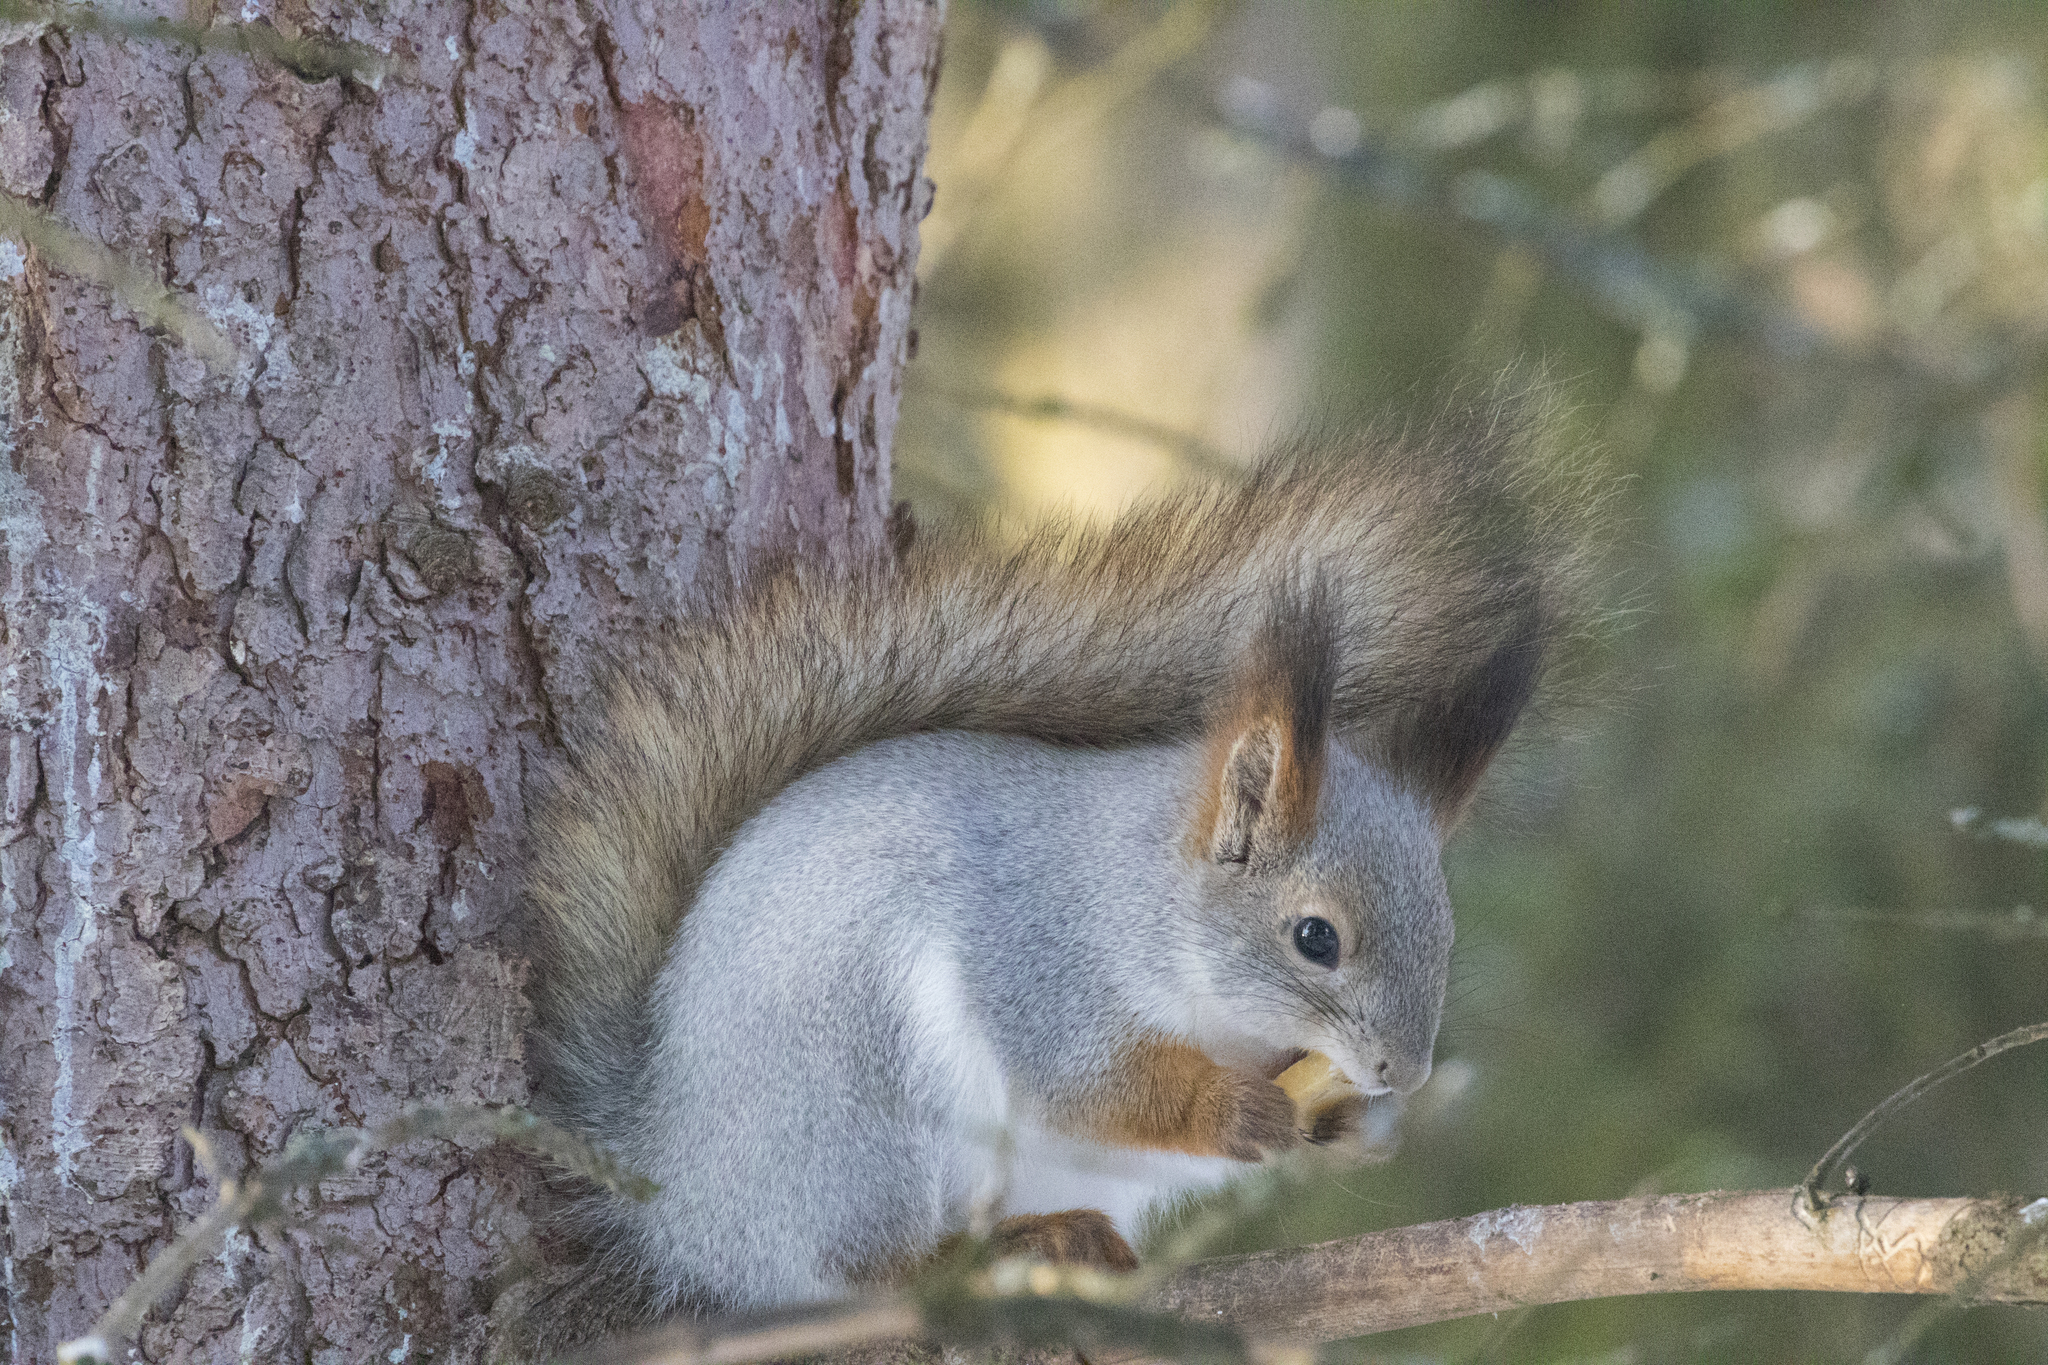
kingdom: Animalia
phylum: Chordata
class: Mammalia
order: Rodentia
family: Sciuridae
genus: Sciurus
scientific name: Sciurus vulgaris
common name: Eurasian red squirrel
